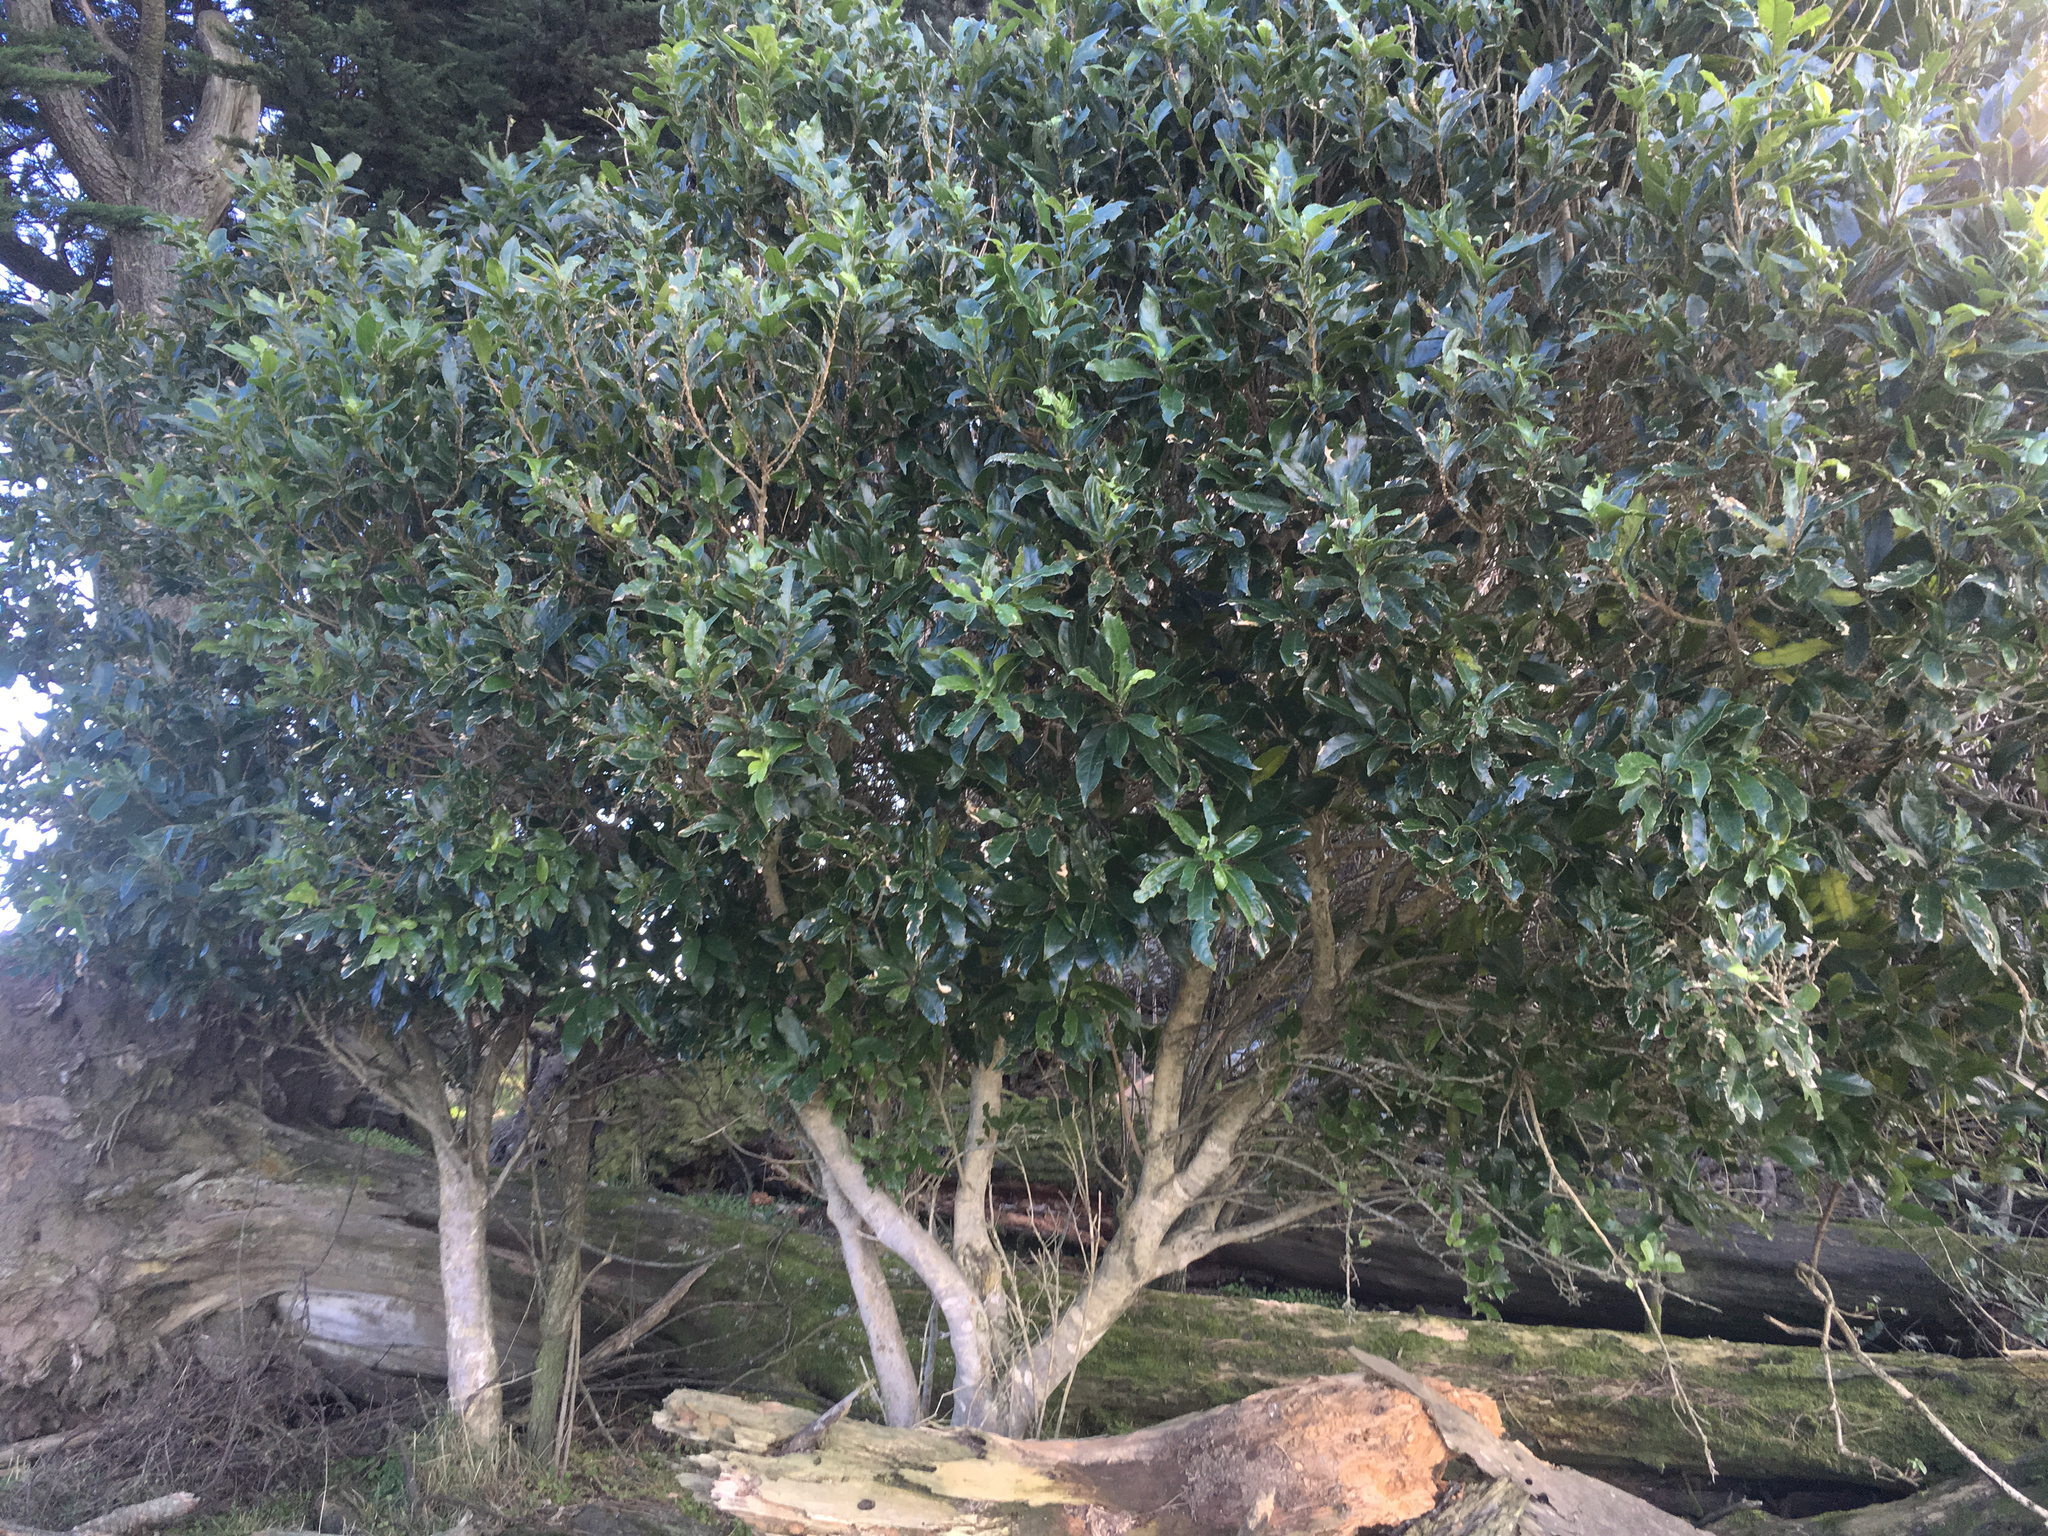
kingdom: Plantae
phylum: Tracheophyta
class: Magnoliopsida
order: Malpighiales
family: Violaceae
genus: Melicytus
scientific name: Melicytus ramiflorus
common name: Mahoe
